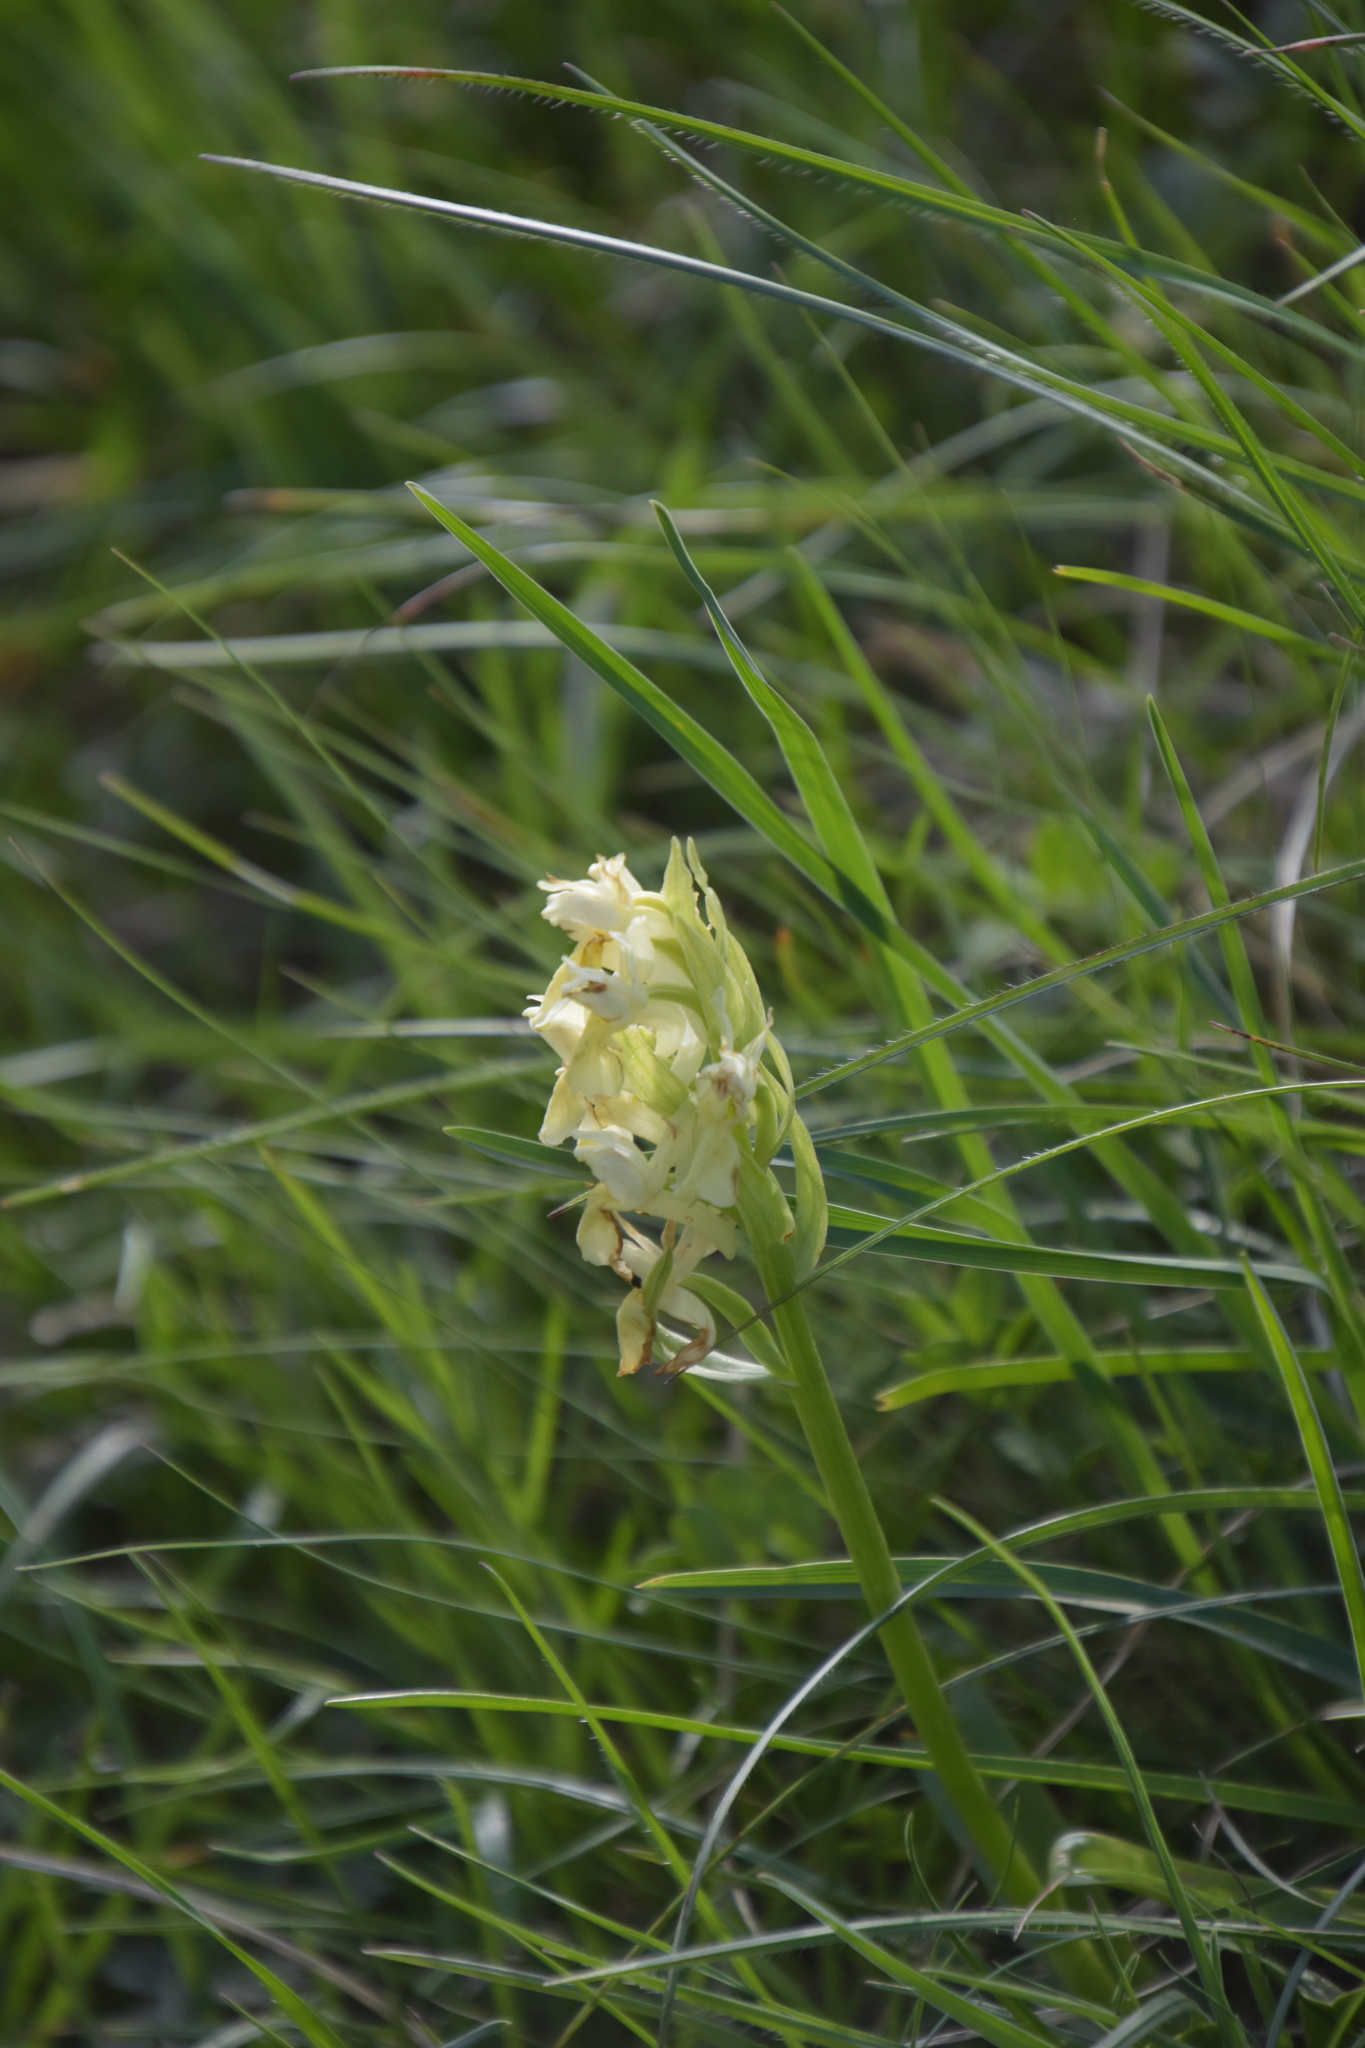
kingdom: Plantae
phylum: Tracheophyta
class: Liliopsida
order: Asparagales
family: Orchidaceae
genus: Dactylorhiza
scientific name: Dactylorhiza sambucina
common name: Elder-flowered orchid
